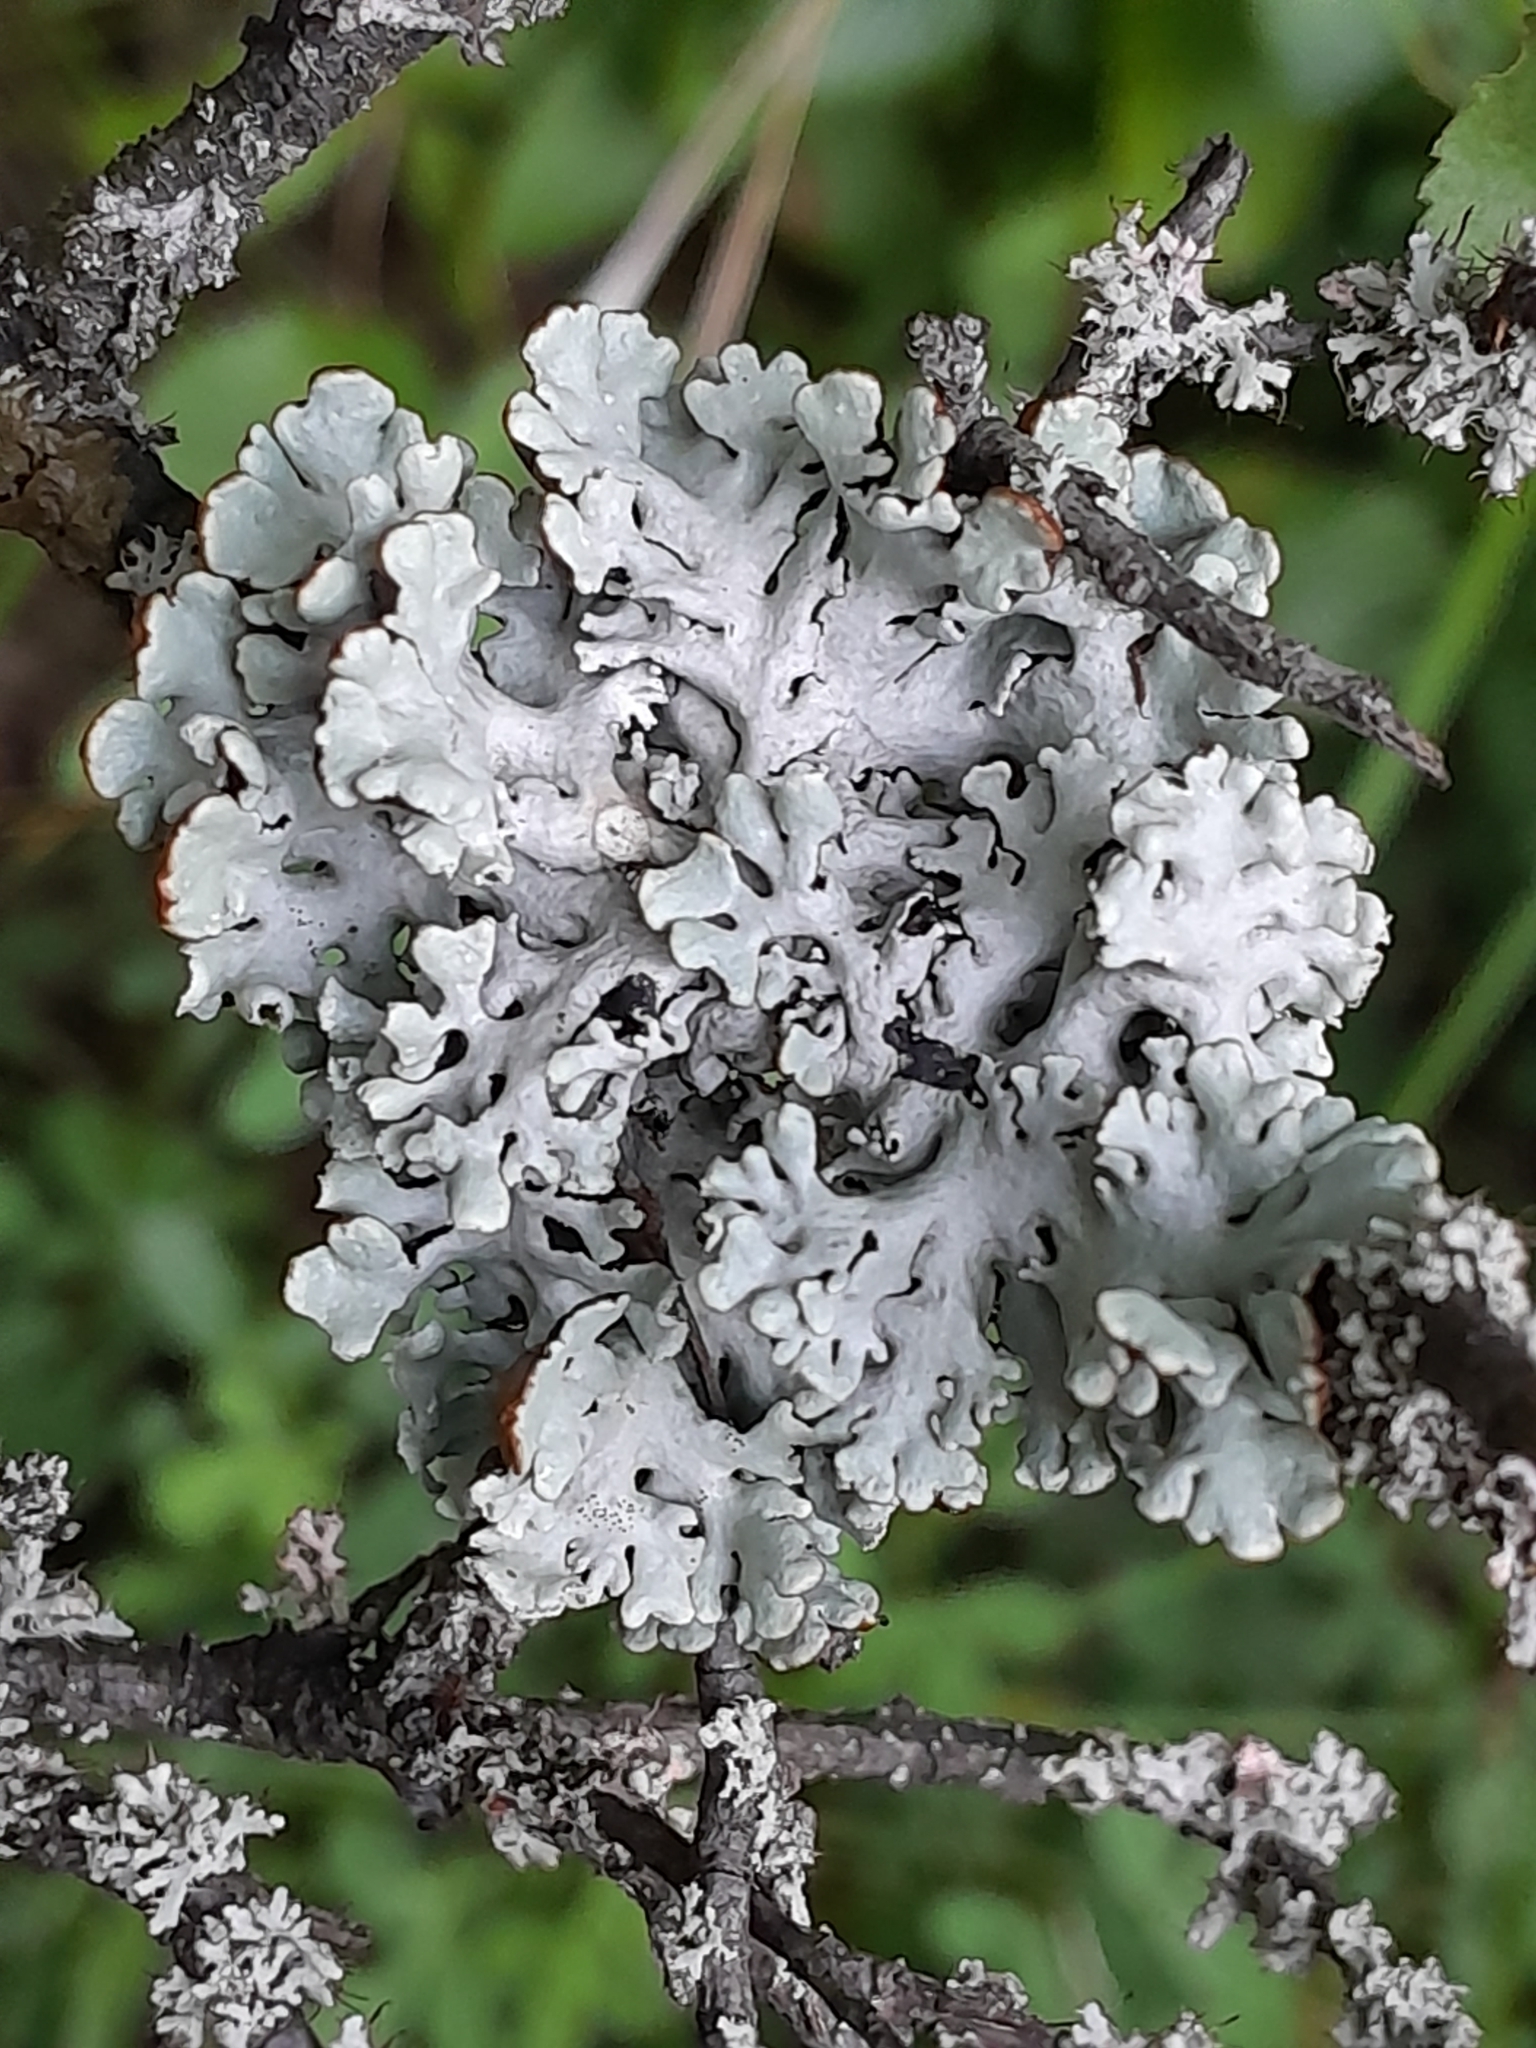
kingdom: Fungi
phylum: Ascomycota
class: Lecanoromycetes
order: Lecanorales
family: Parmeliaceae
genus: Hypogymnia
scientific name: Hypogymnia physodes
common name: Dark crottle
